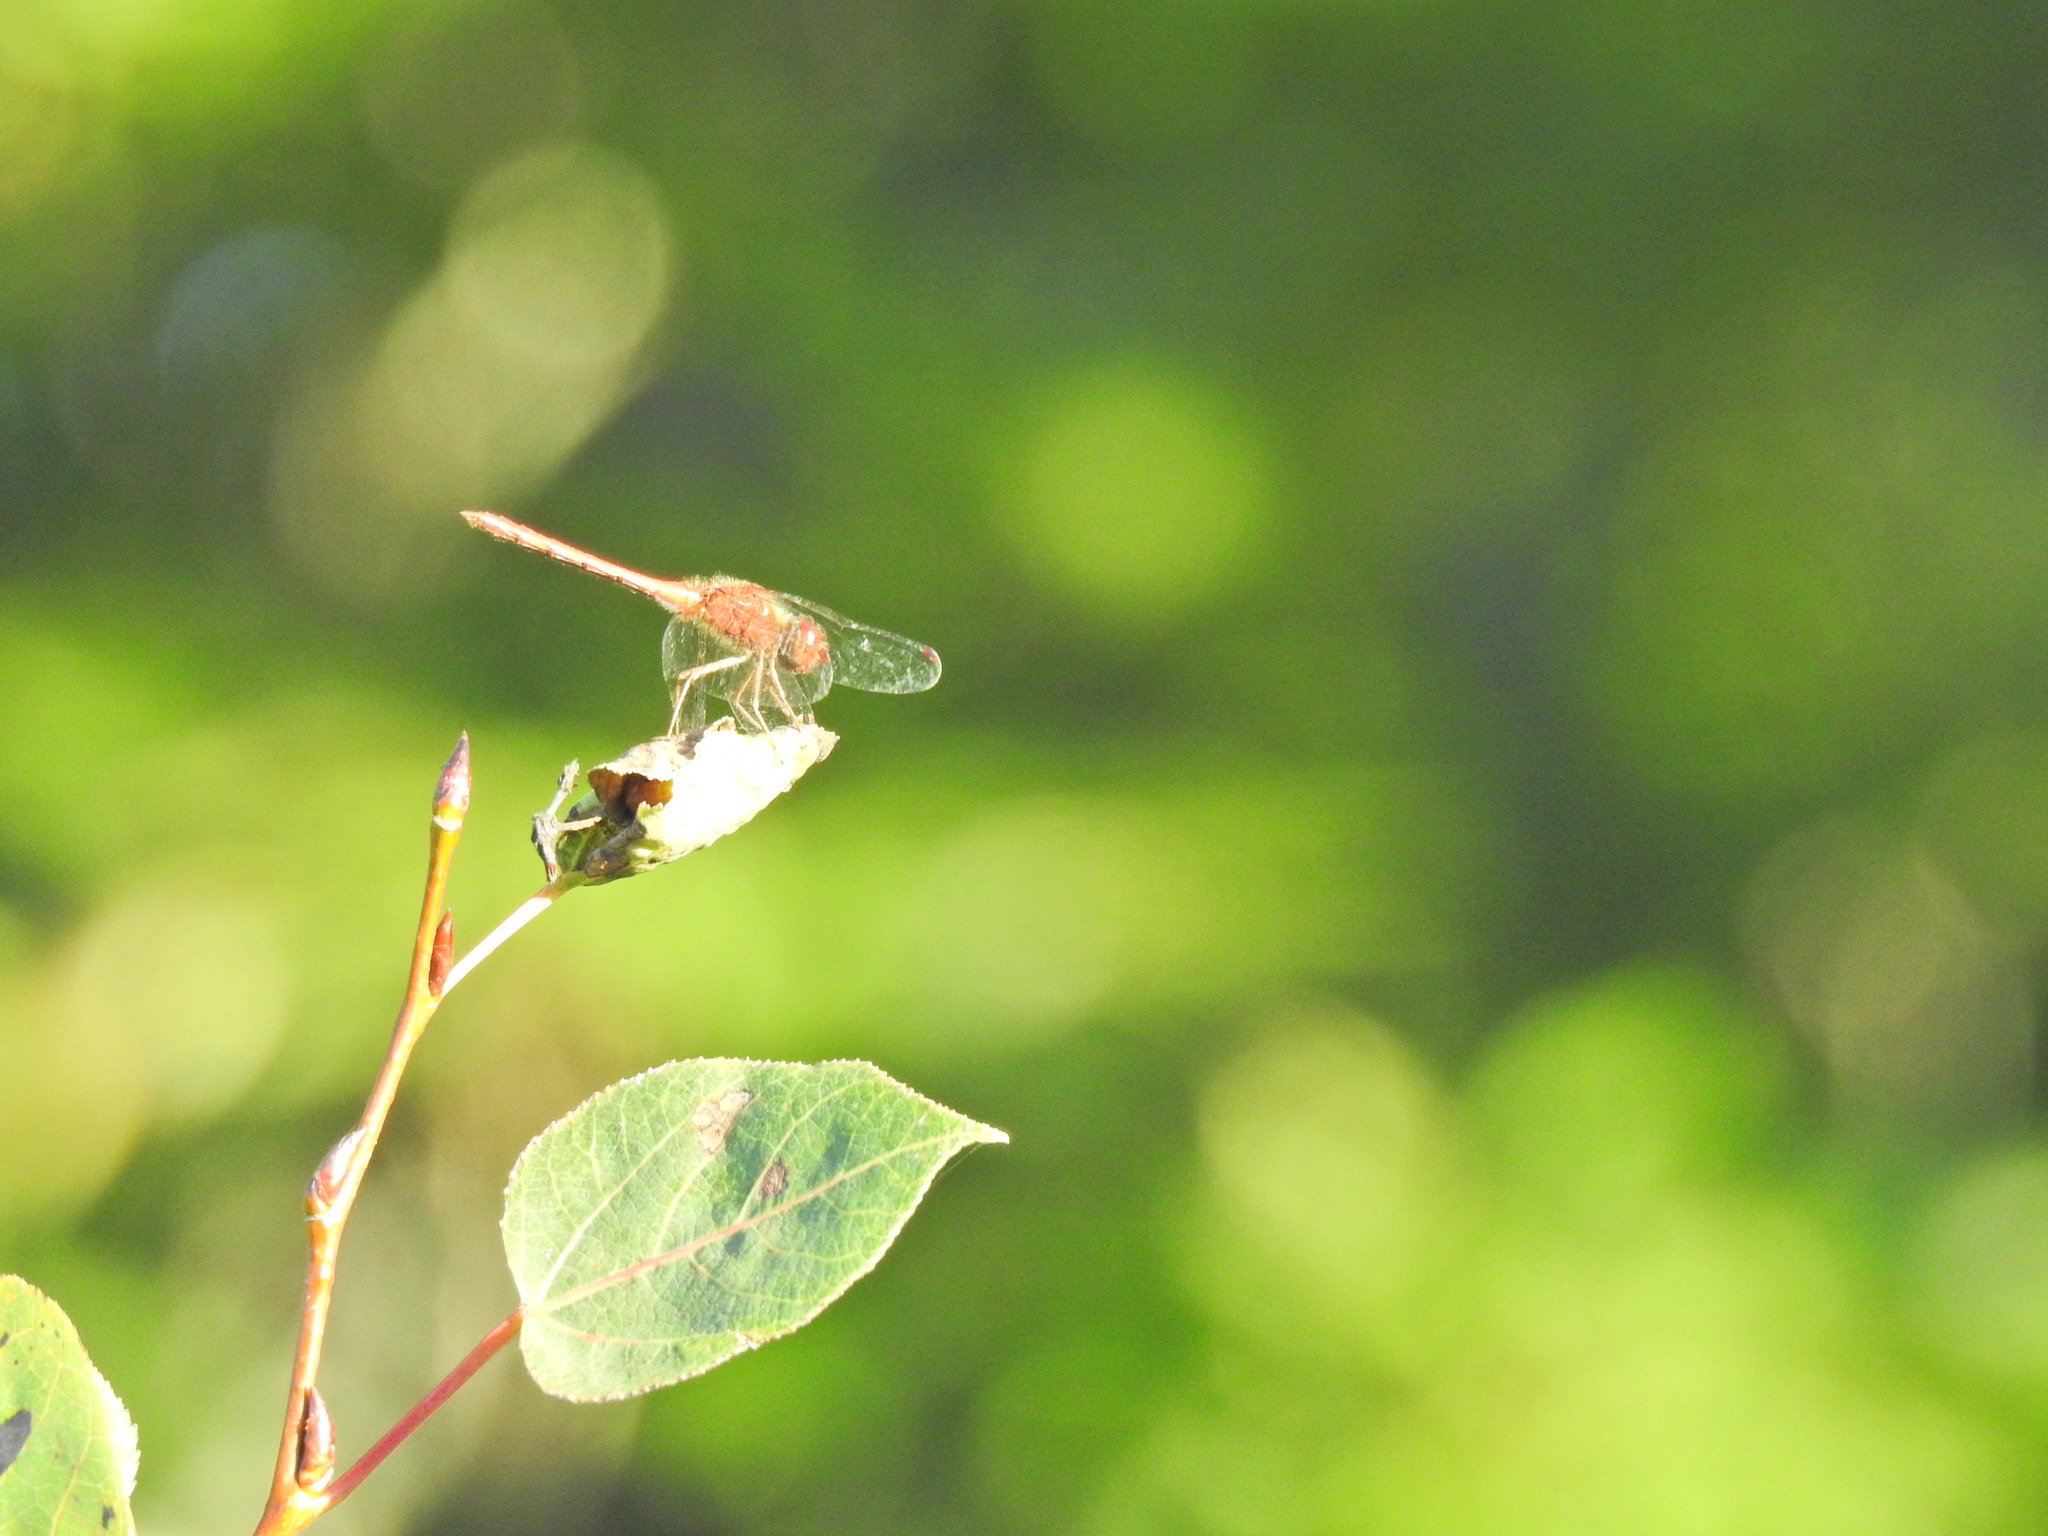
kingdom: Animalia
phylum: Arthropoda
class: Insecta
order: Odonata
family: Libellulidae
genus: Sympetrum
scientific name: Sympetrum vicinum
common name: Autumn meadowhawk
